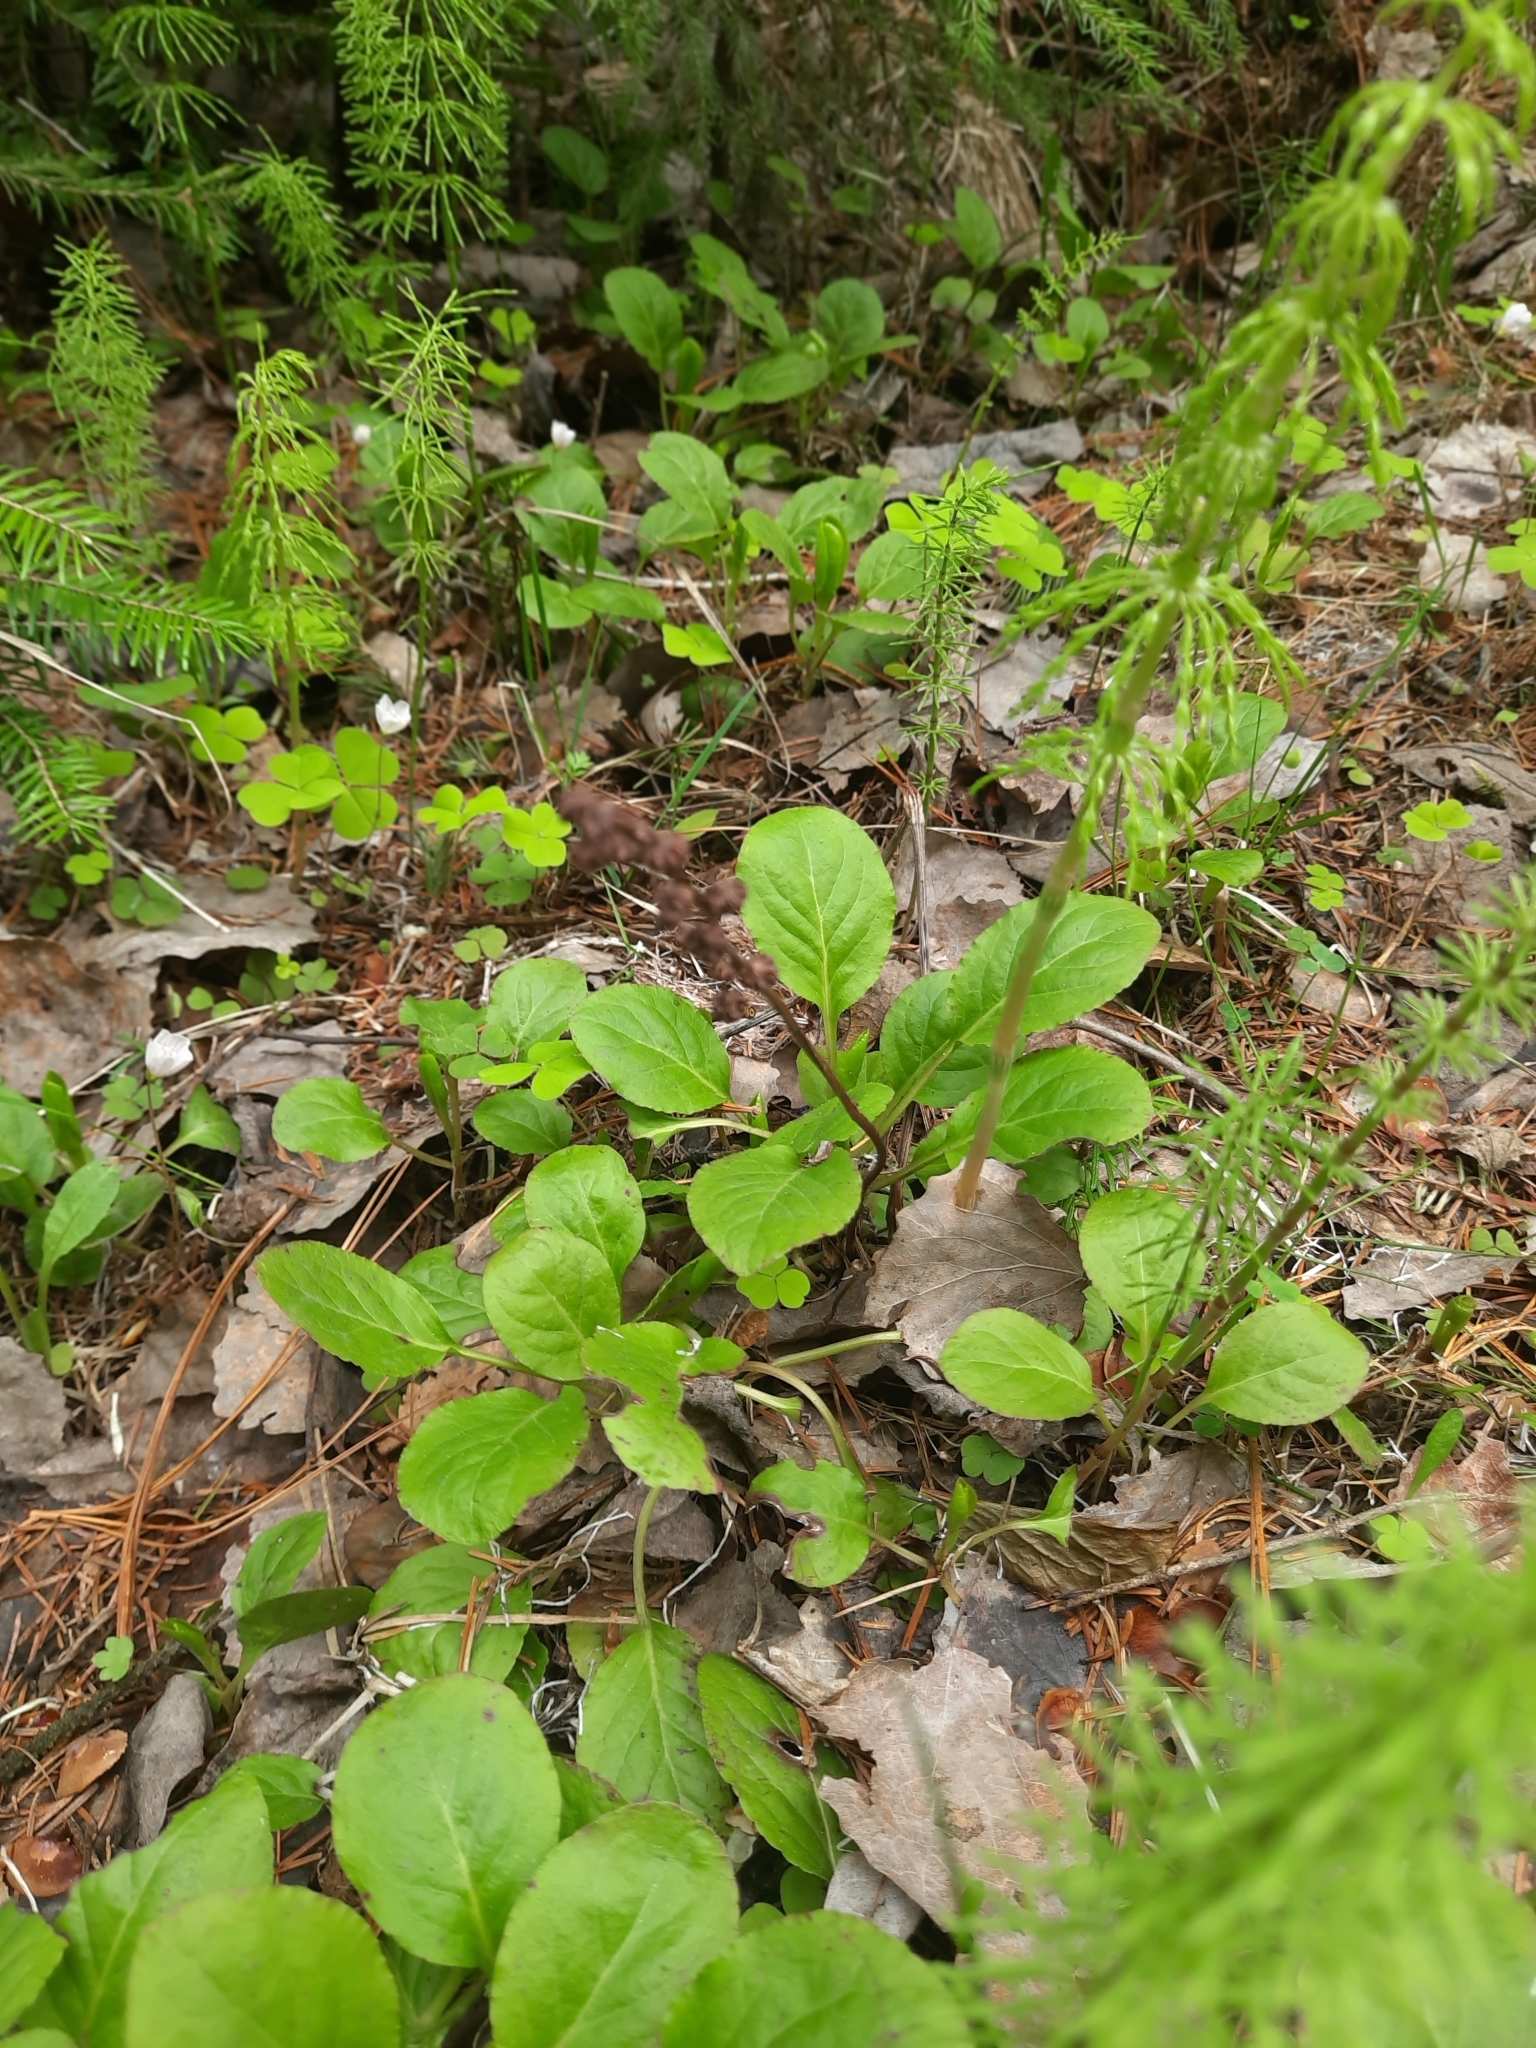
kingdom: Plantae
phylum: Tracheophyta
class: Magnoliopsida
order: Ericales
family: Ericaceae
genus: Pyrola
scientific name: Pyrola minor
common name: Common wintergreen
